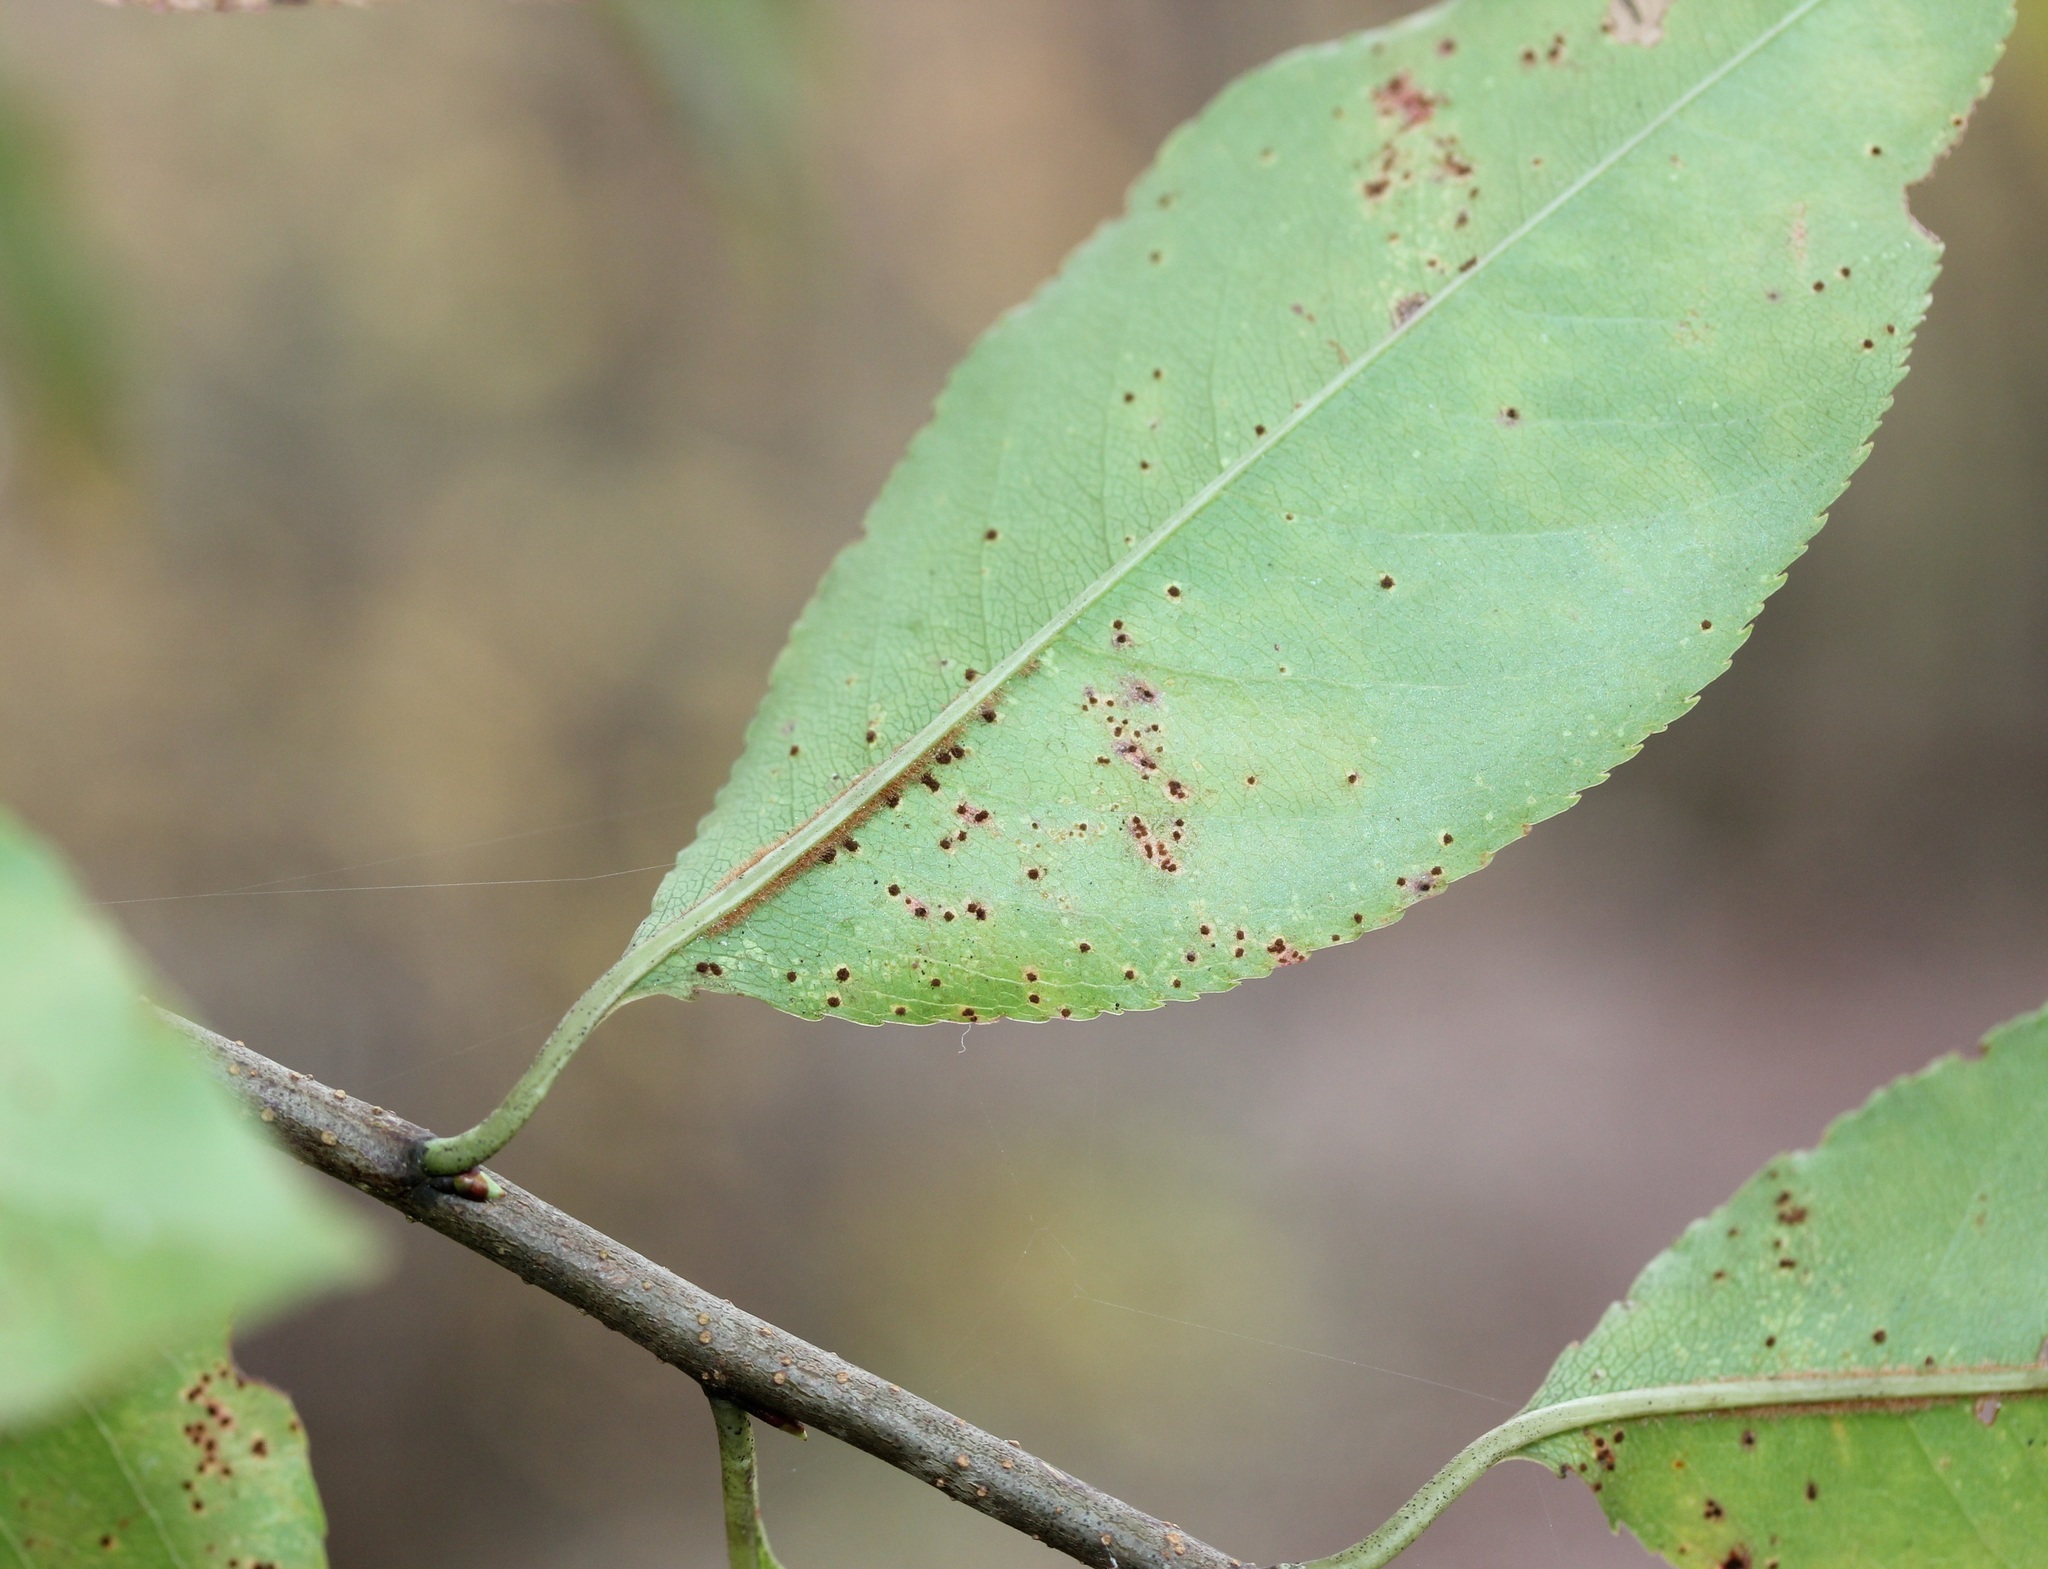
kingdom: Plantae
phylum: Tracheophyta
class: Magnoliopsida
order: Rosales
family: Rosaceae
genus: Prunus
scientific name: Prunus serotina
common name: Black cherry
